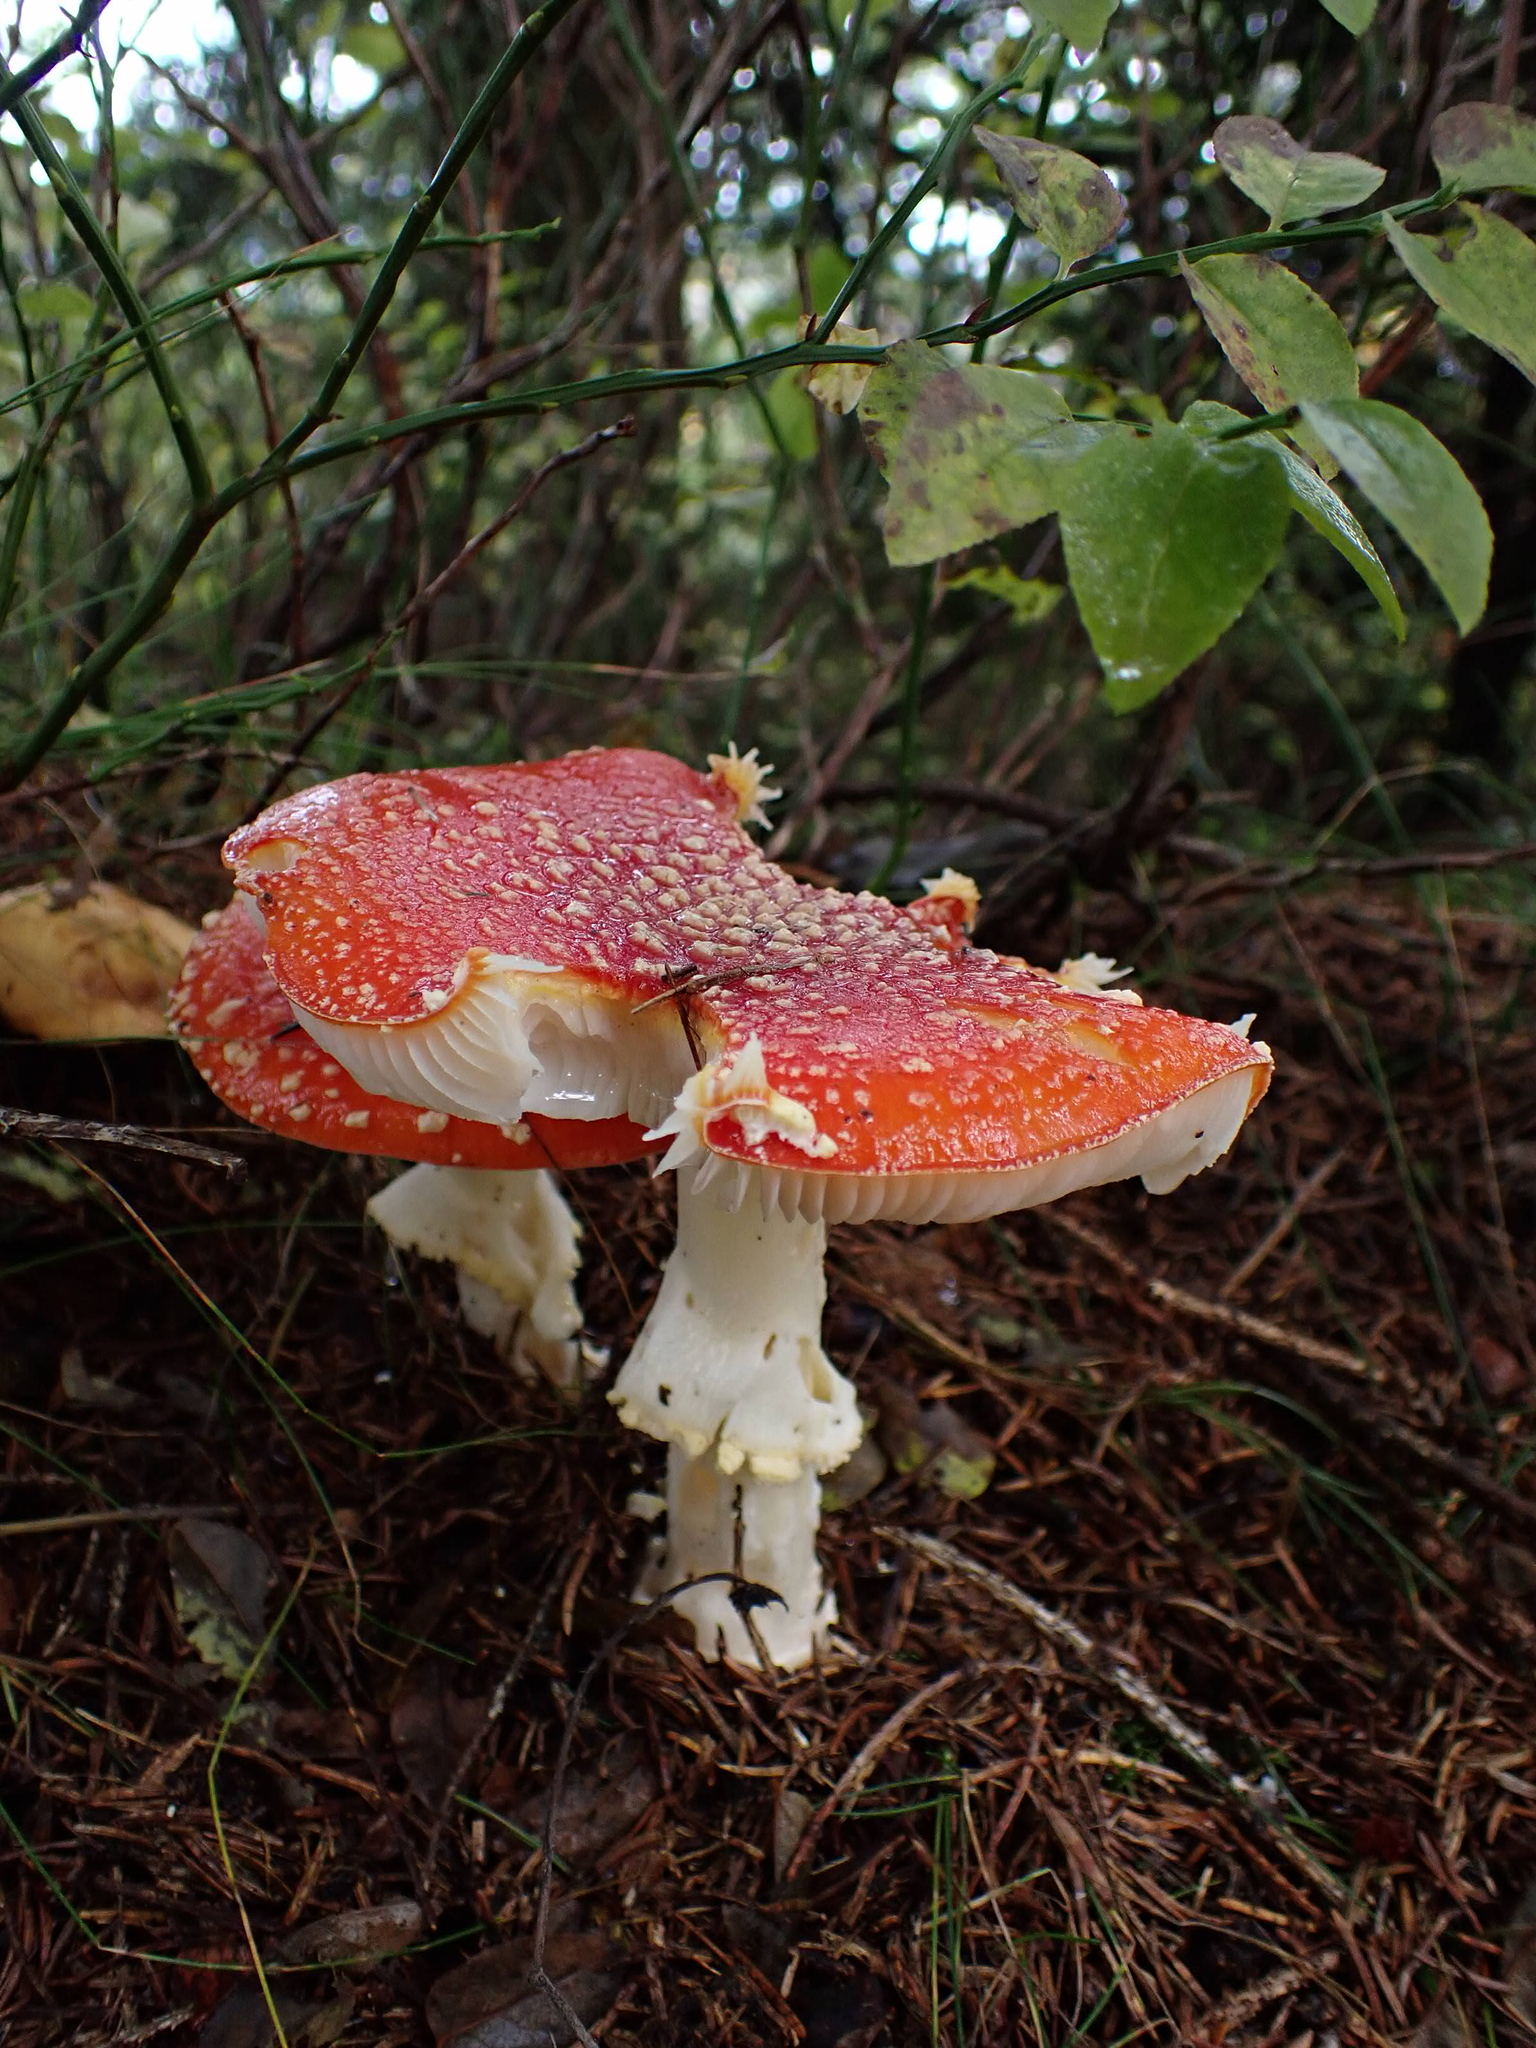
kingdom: Fungi
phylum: Basidiomycota
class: Agaricomycetes
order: Agaricales
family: Amanitaceae
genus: Amanita
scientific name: Amanita muscaria
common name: Fly agaric
